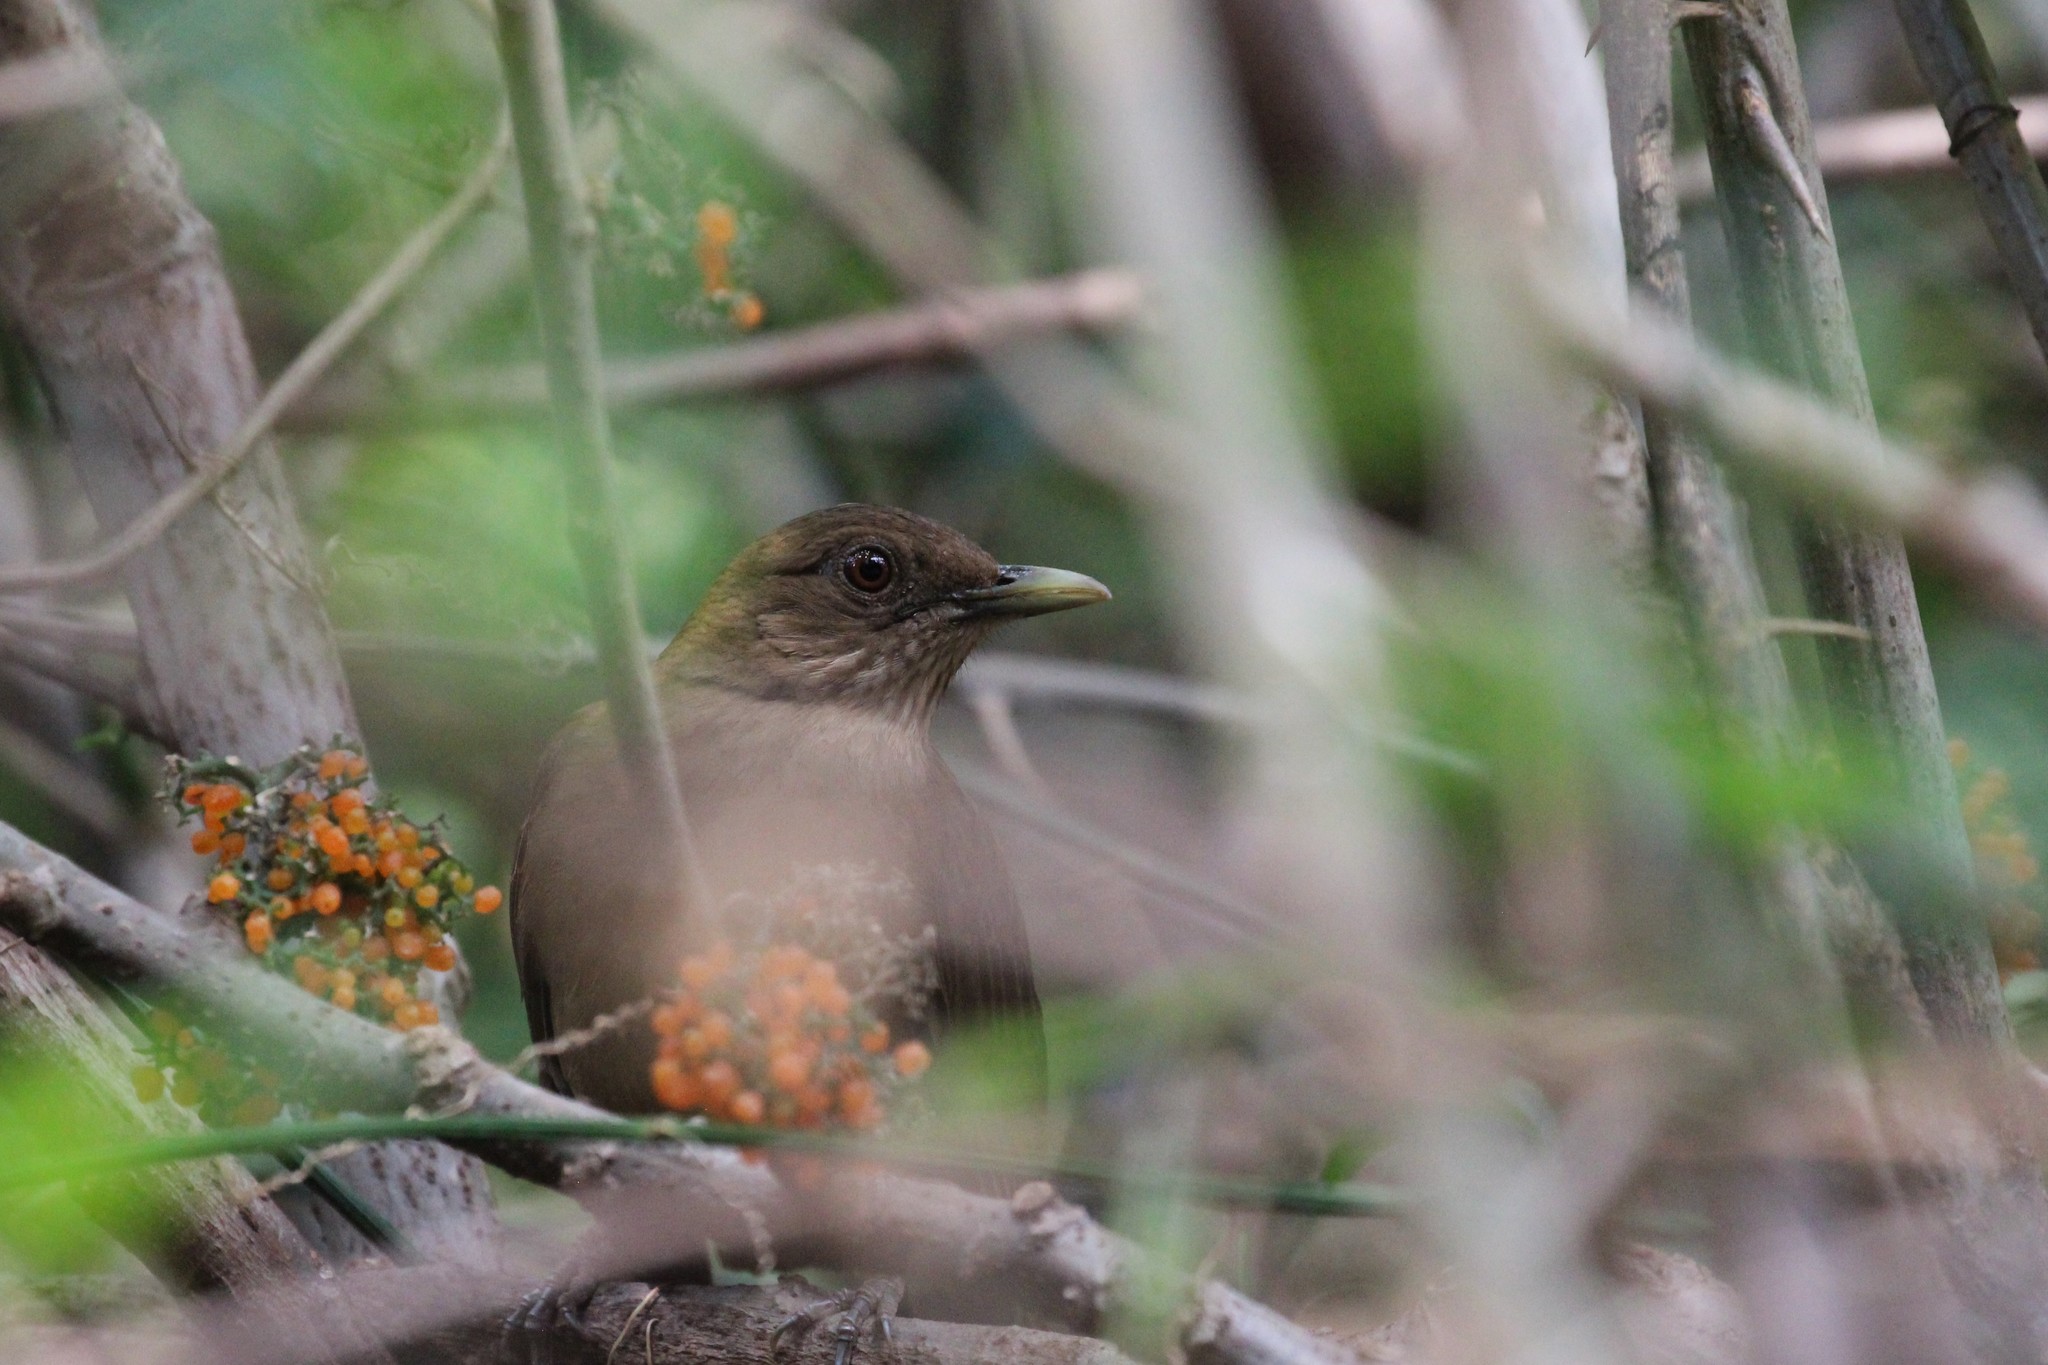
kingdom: Animalia
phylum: Chordata
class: Aves
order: Passeriformes
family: Turdidae
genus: Turdus
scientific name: Turdus grayi
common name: Clay-colored thrush
